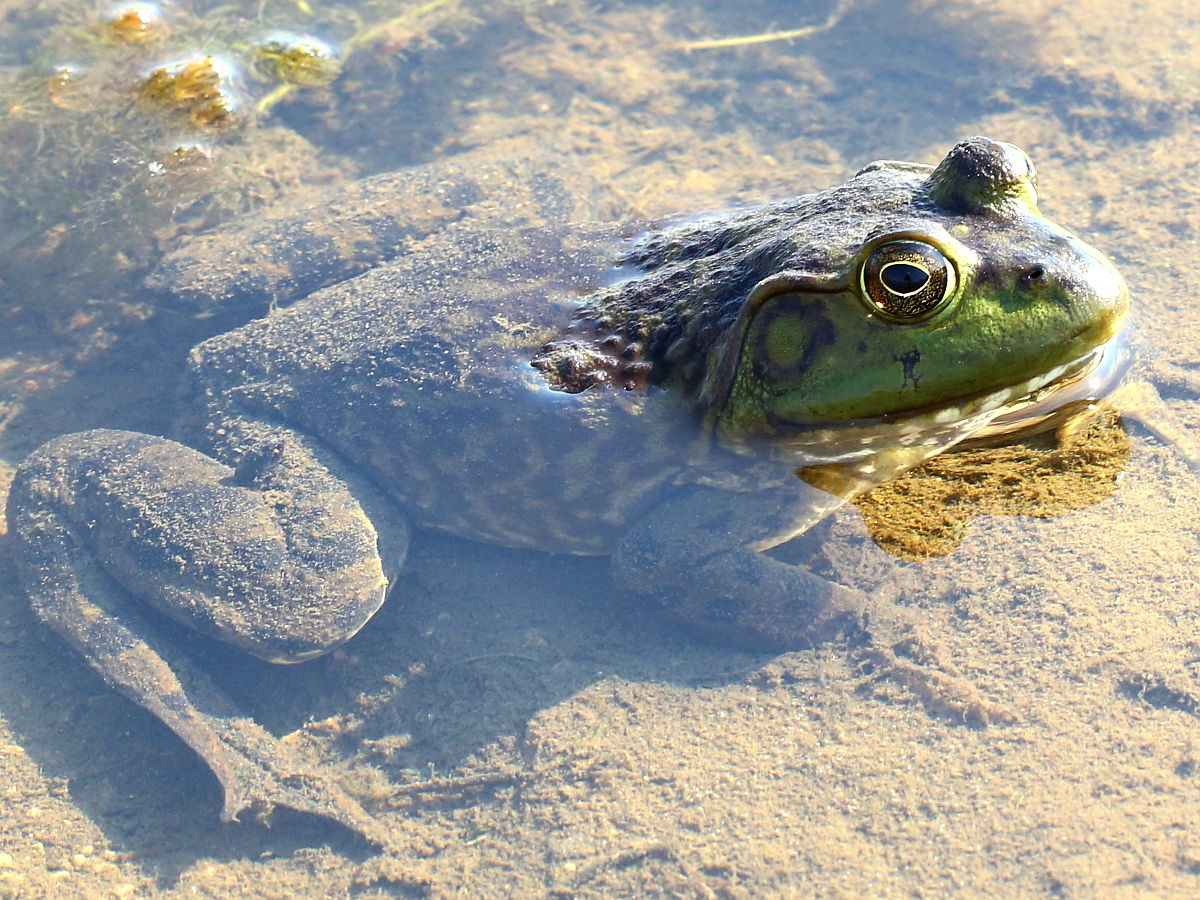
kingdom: Animalia
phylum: Chordata
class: Amphibia
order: Anura
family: Ranidae
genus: Lithobates
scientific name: Lithobates catesbeianus
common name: American bullfrog
